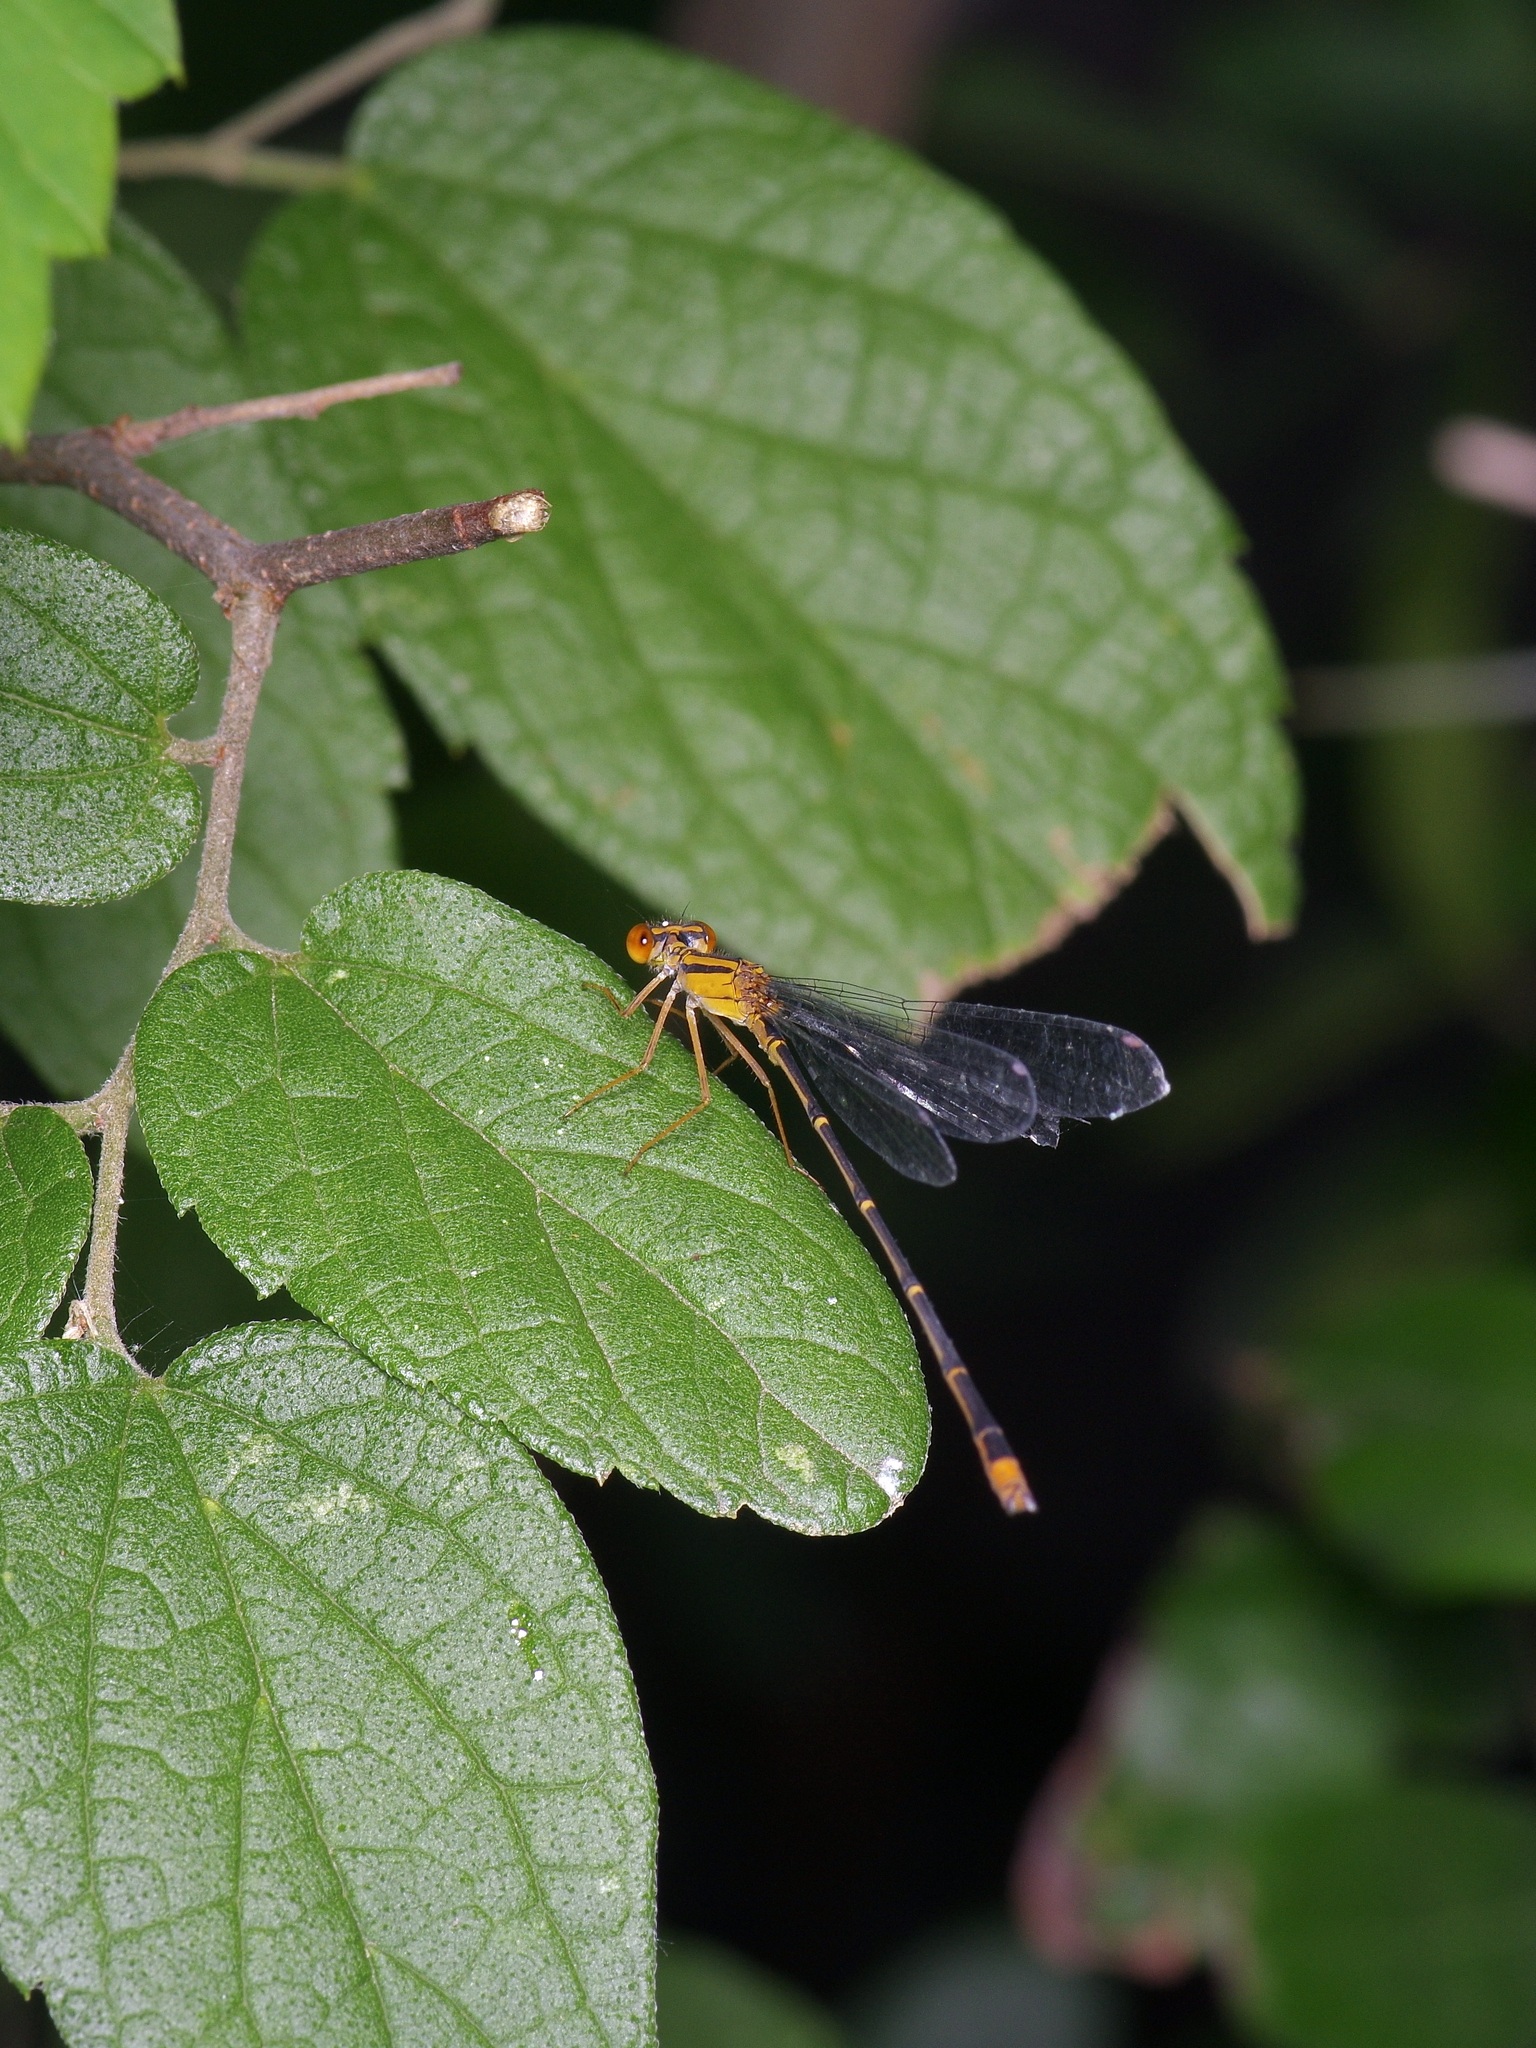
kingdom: Animalia
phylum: Arthropoda
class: Insecta
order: Odonata
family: Coenagrionidae
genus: Enallagma
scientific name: Enallagma signatum
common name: Orange bluet
